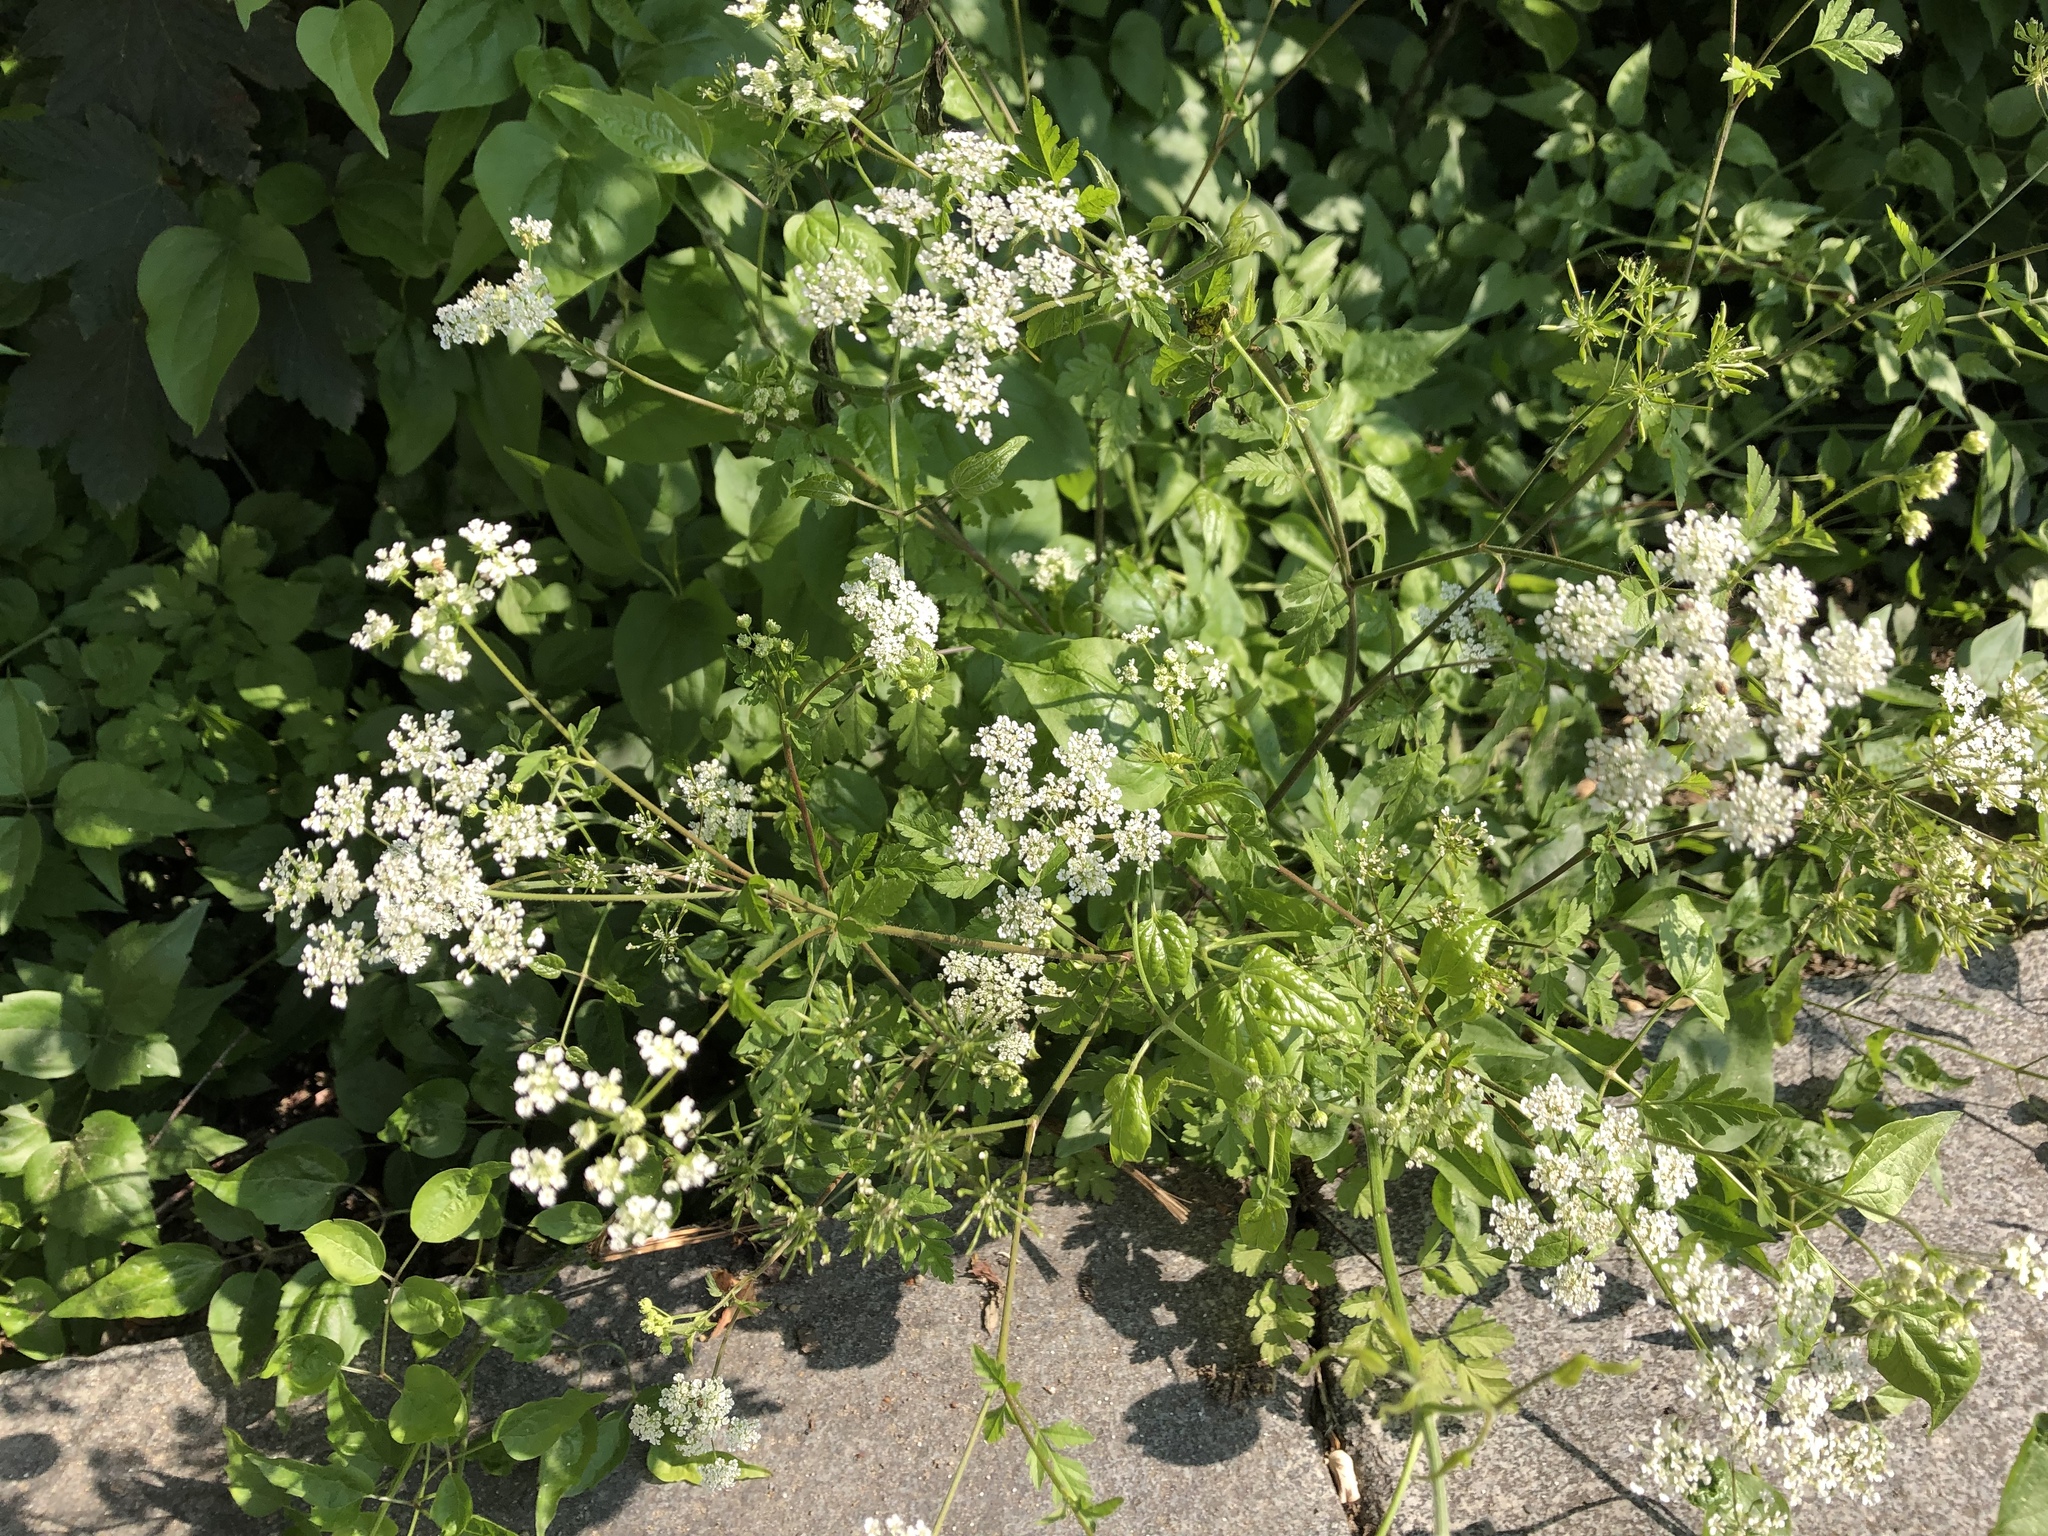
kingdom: Plantae
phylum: Tracheophyta
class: Magnoliopsida
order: Apiales
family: Apiaceae
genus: Chaerophyllum
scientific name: Chaerophyllum temulum
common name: Rough chervil
